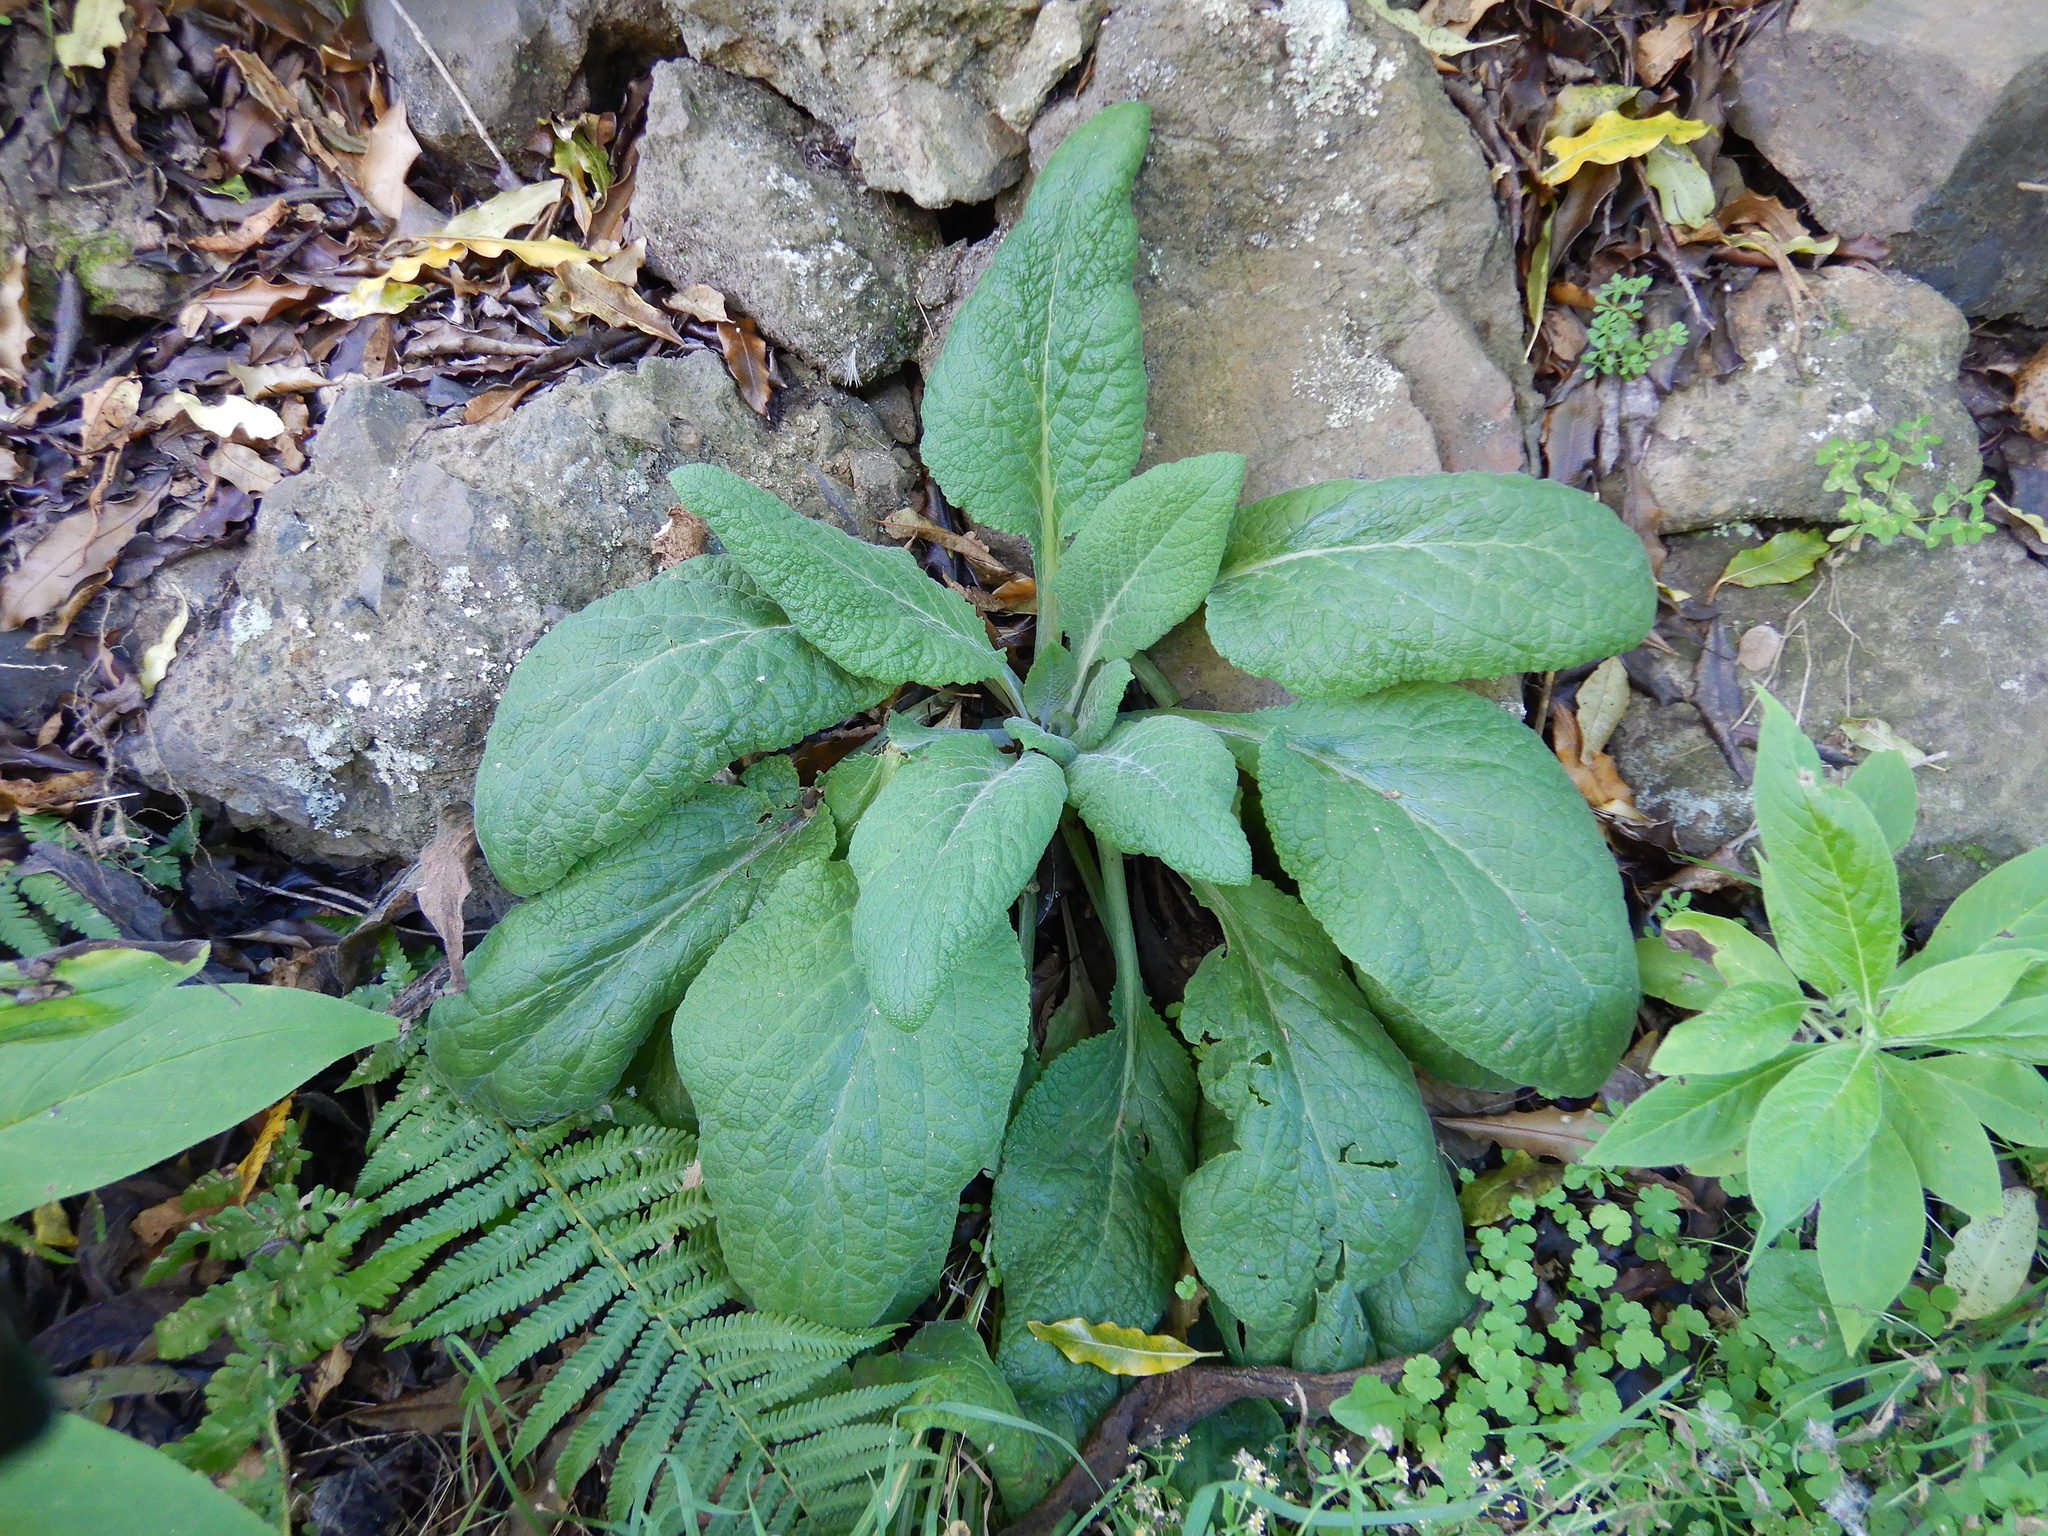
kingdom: Plantae
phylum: Tracheophyta
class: Magnoliopsida
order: Lamiales
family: Plantaginaceae
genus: Digitalis
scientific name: Digitalis purpurea
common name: Foxglove
